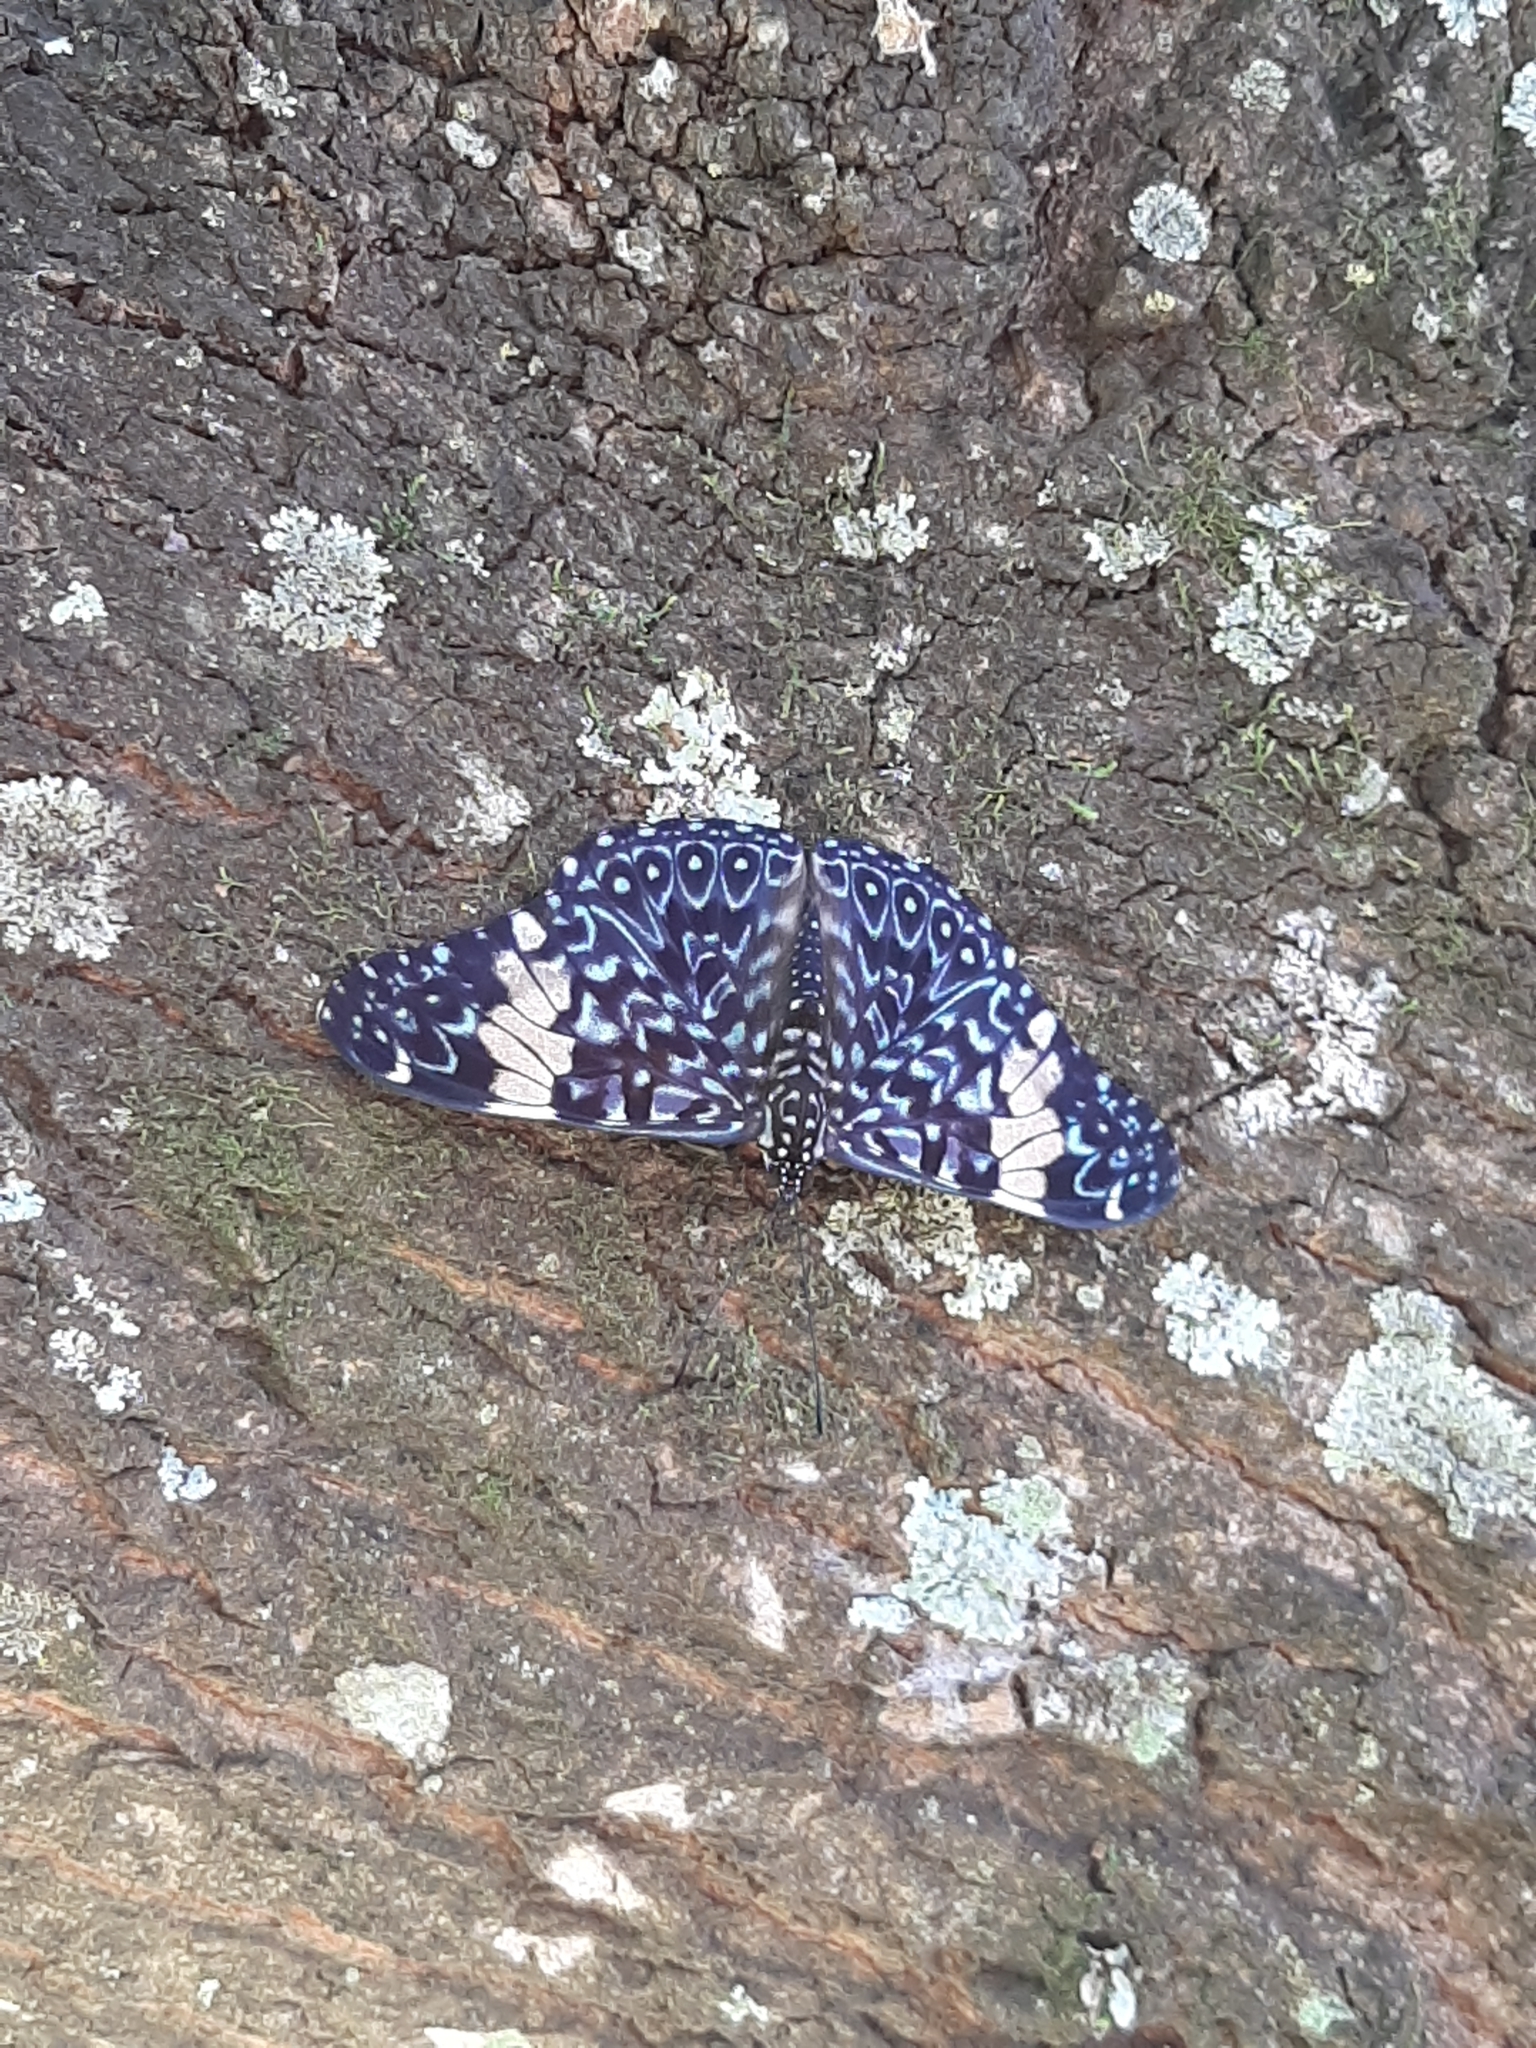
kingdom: Animalia
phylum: Arthropoda
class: Insecta
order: Lepidoptera
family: Nymphalidae
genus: Hamadryas
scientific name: Hamadryas amphinome
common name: Red cracker
